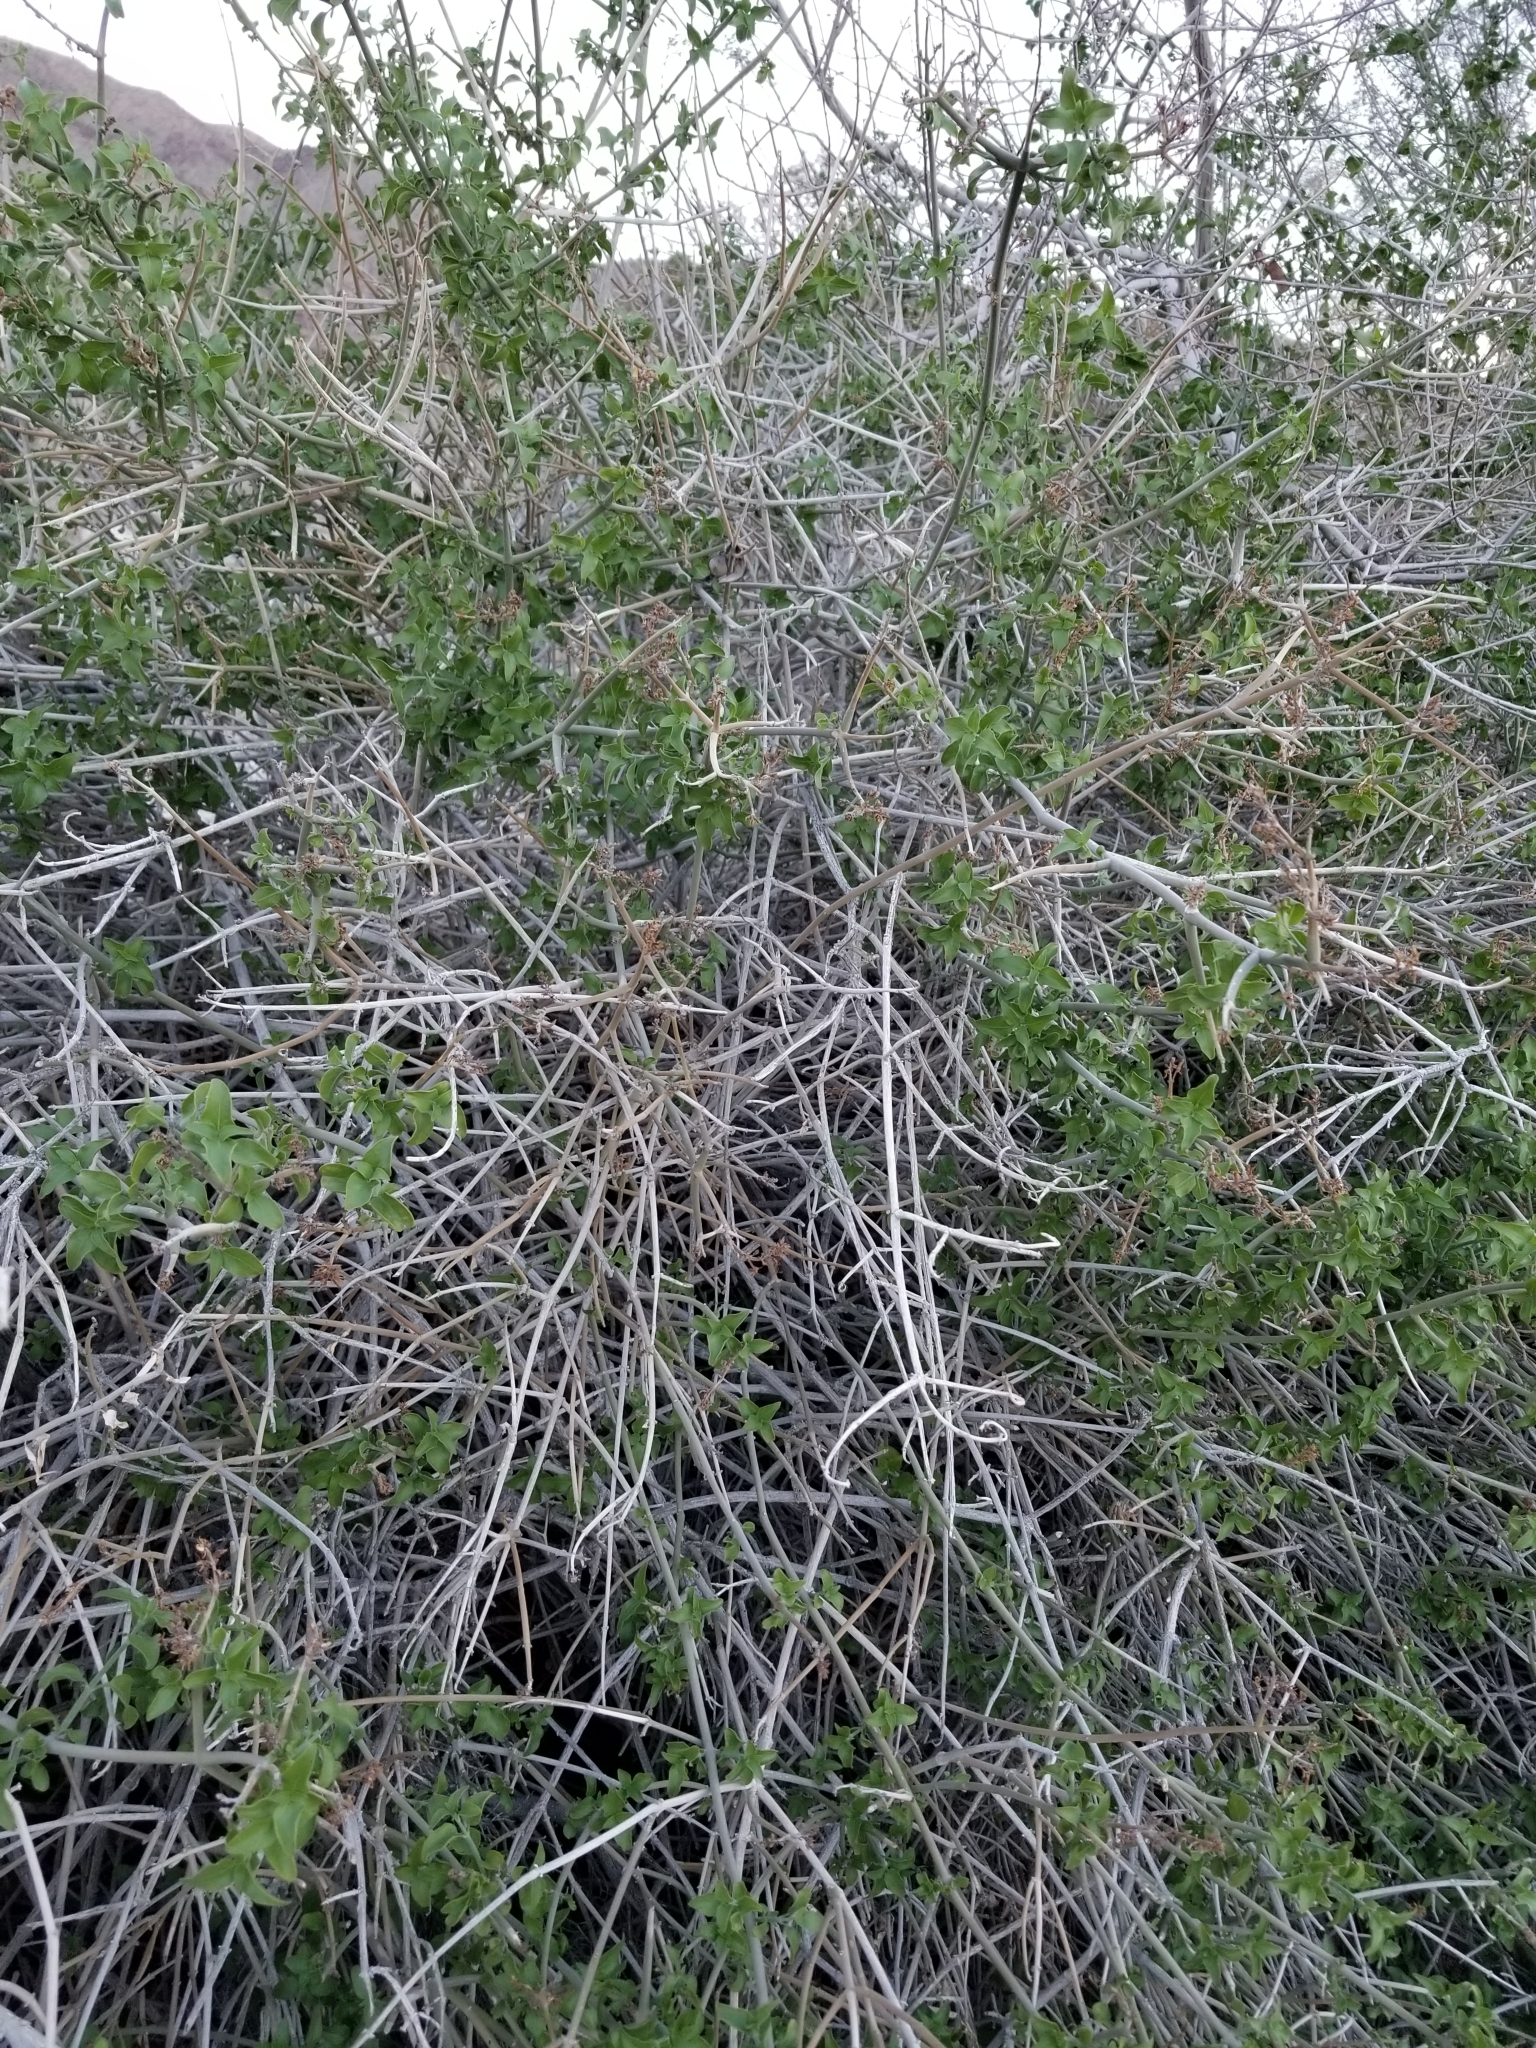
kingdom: Plantae
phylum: Tracheophyta
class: Magnoliopsida
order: Lamiales
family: Acanthaceae
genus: Justicia
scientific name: Justicia californica
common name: Chuparosa-honeysuckle
